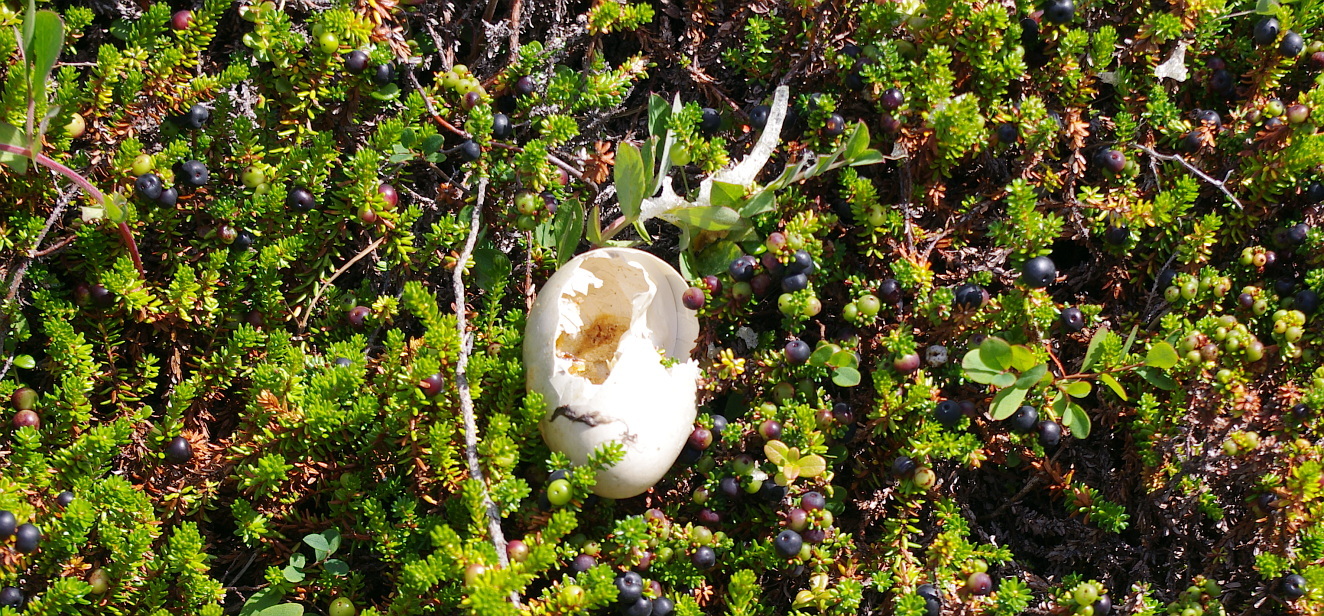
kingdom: Animalia
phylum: Chordata
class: Aves
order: Anseriformes
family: Anatidae
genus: Somateria
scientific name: Somateria mollissima
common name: Common eider
